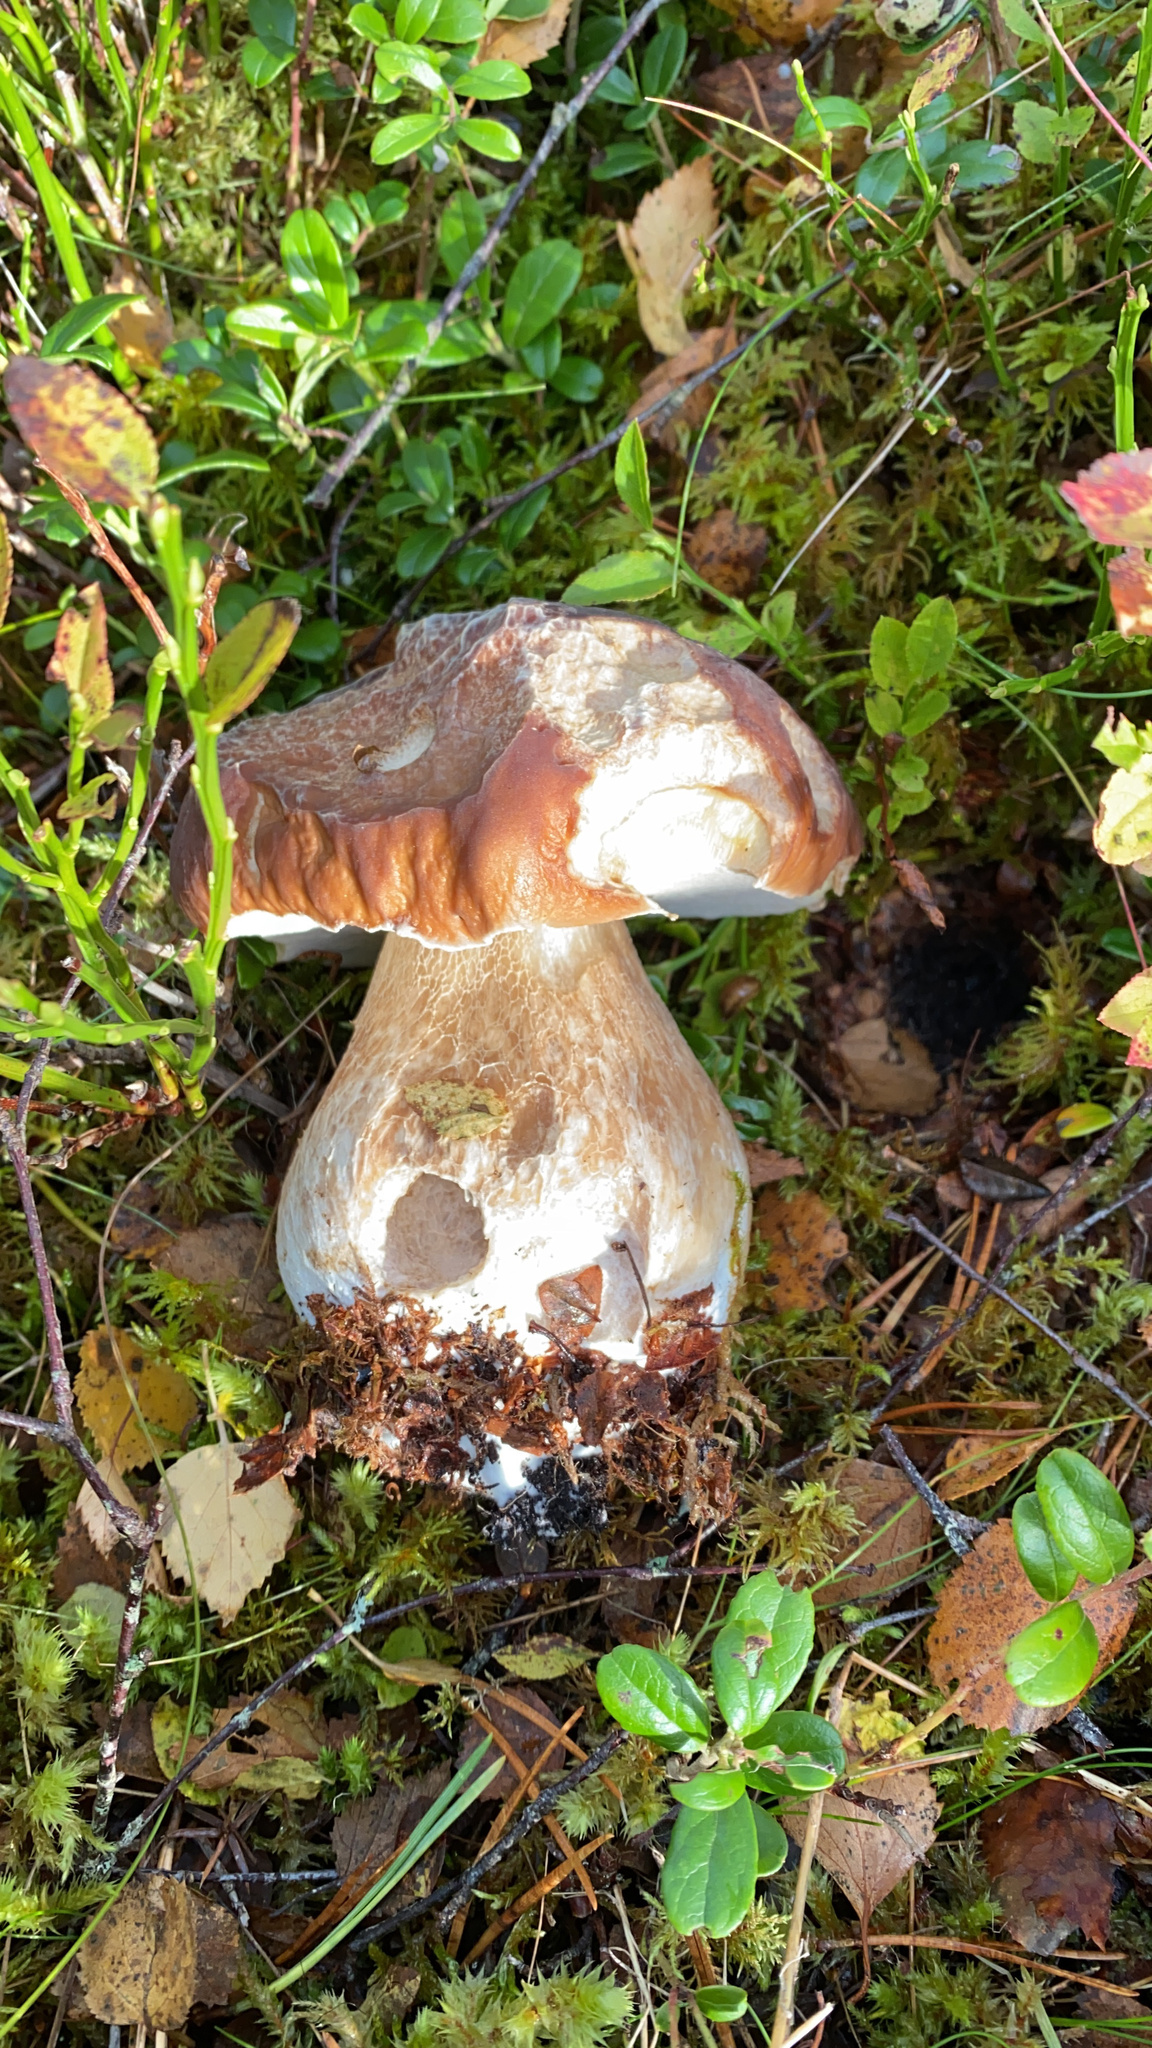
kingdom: Fungi
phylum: Basidiomycota
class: Agaricomycetes
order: Boletales
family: Boletaceae
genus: Boletus
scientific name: Boletus edulis
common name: Cep
